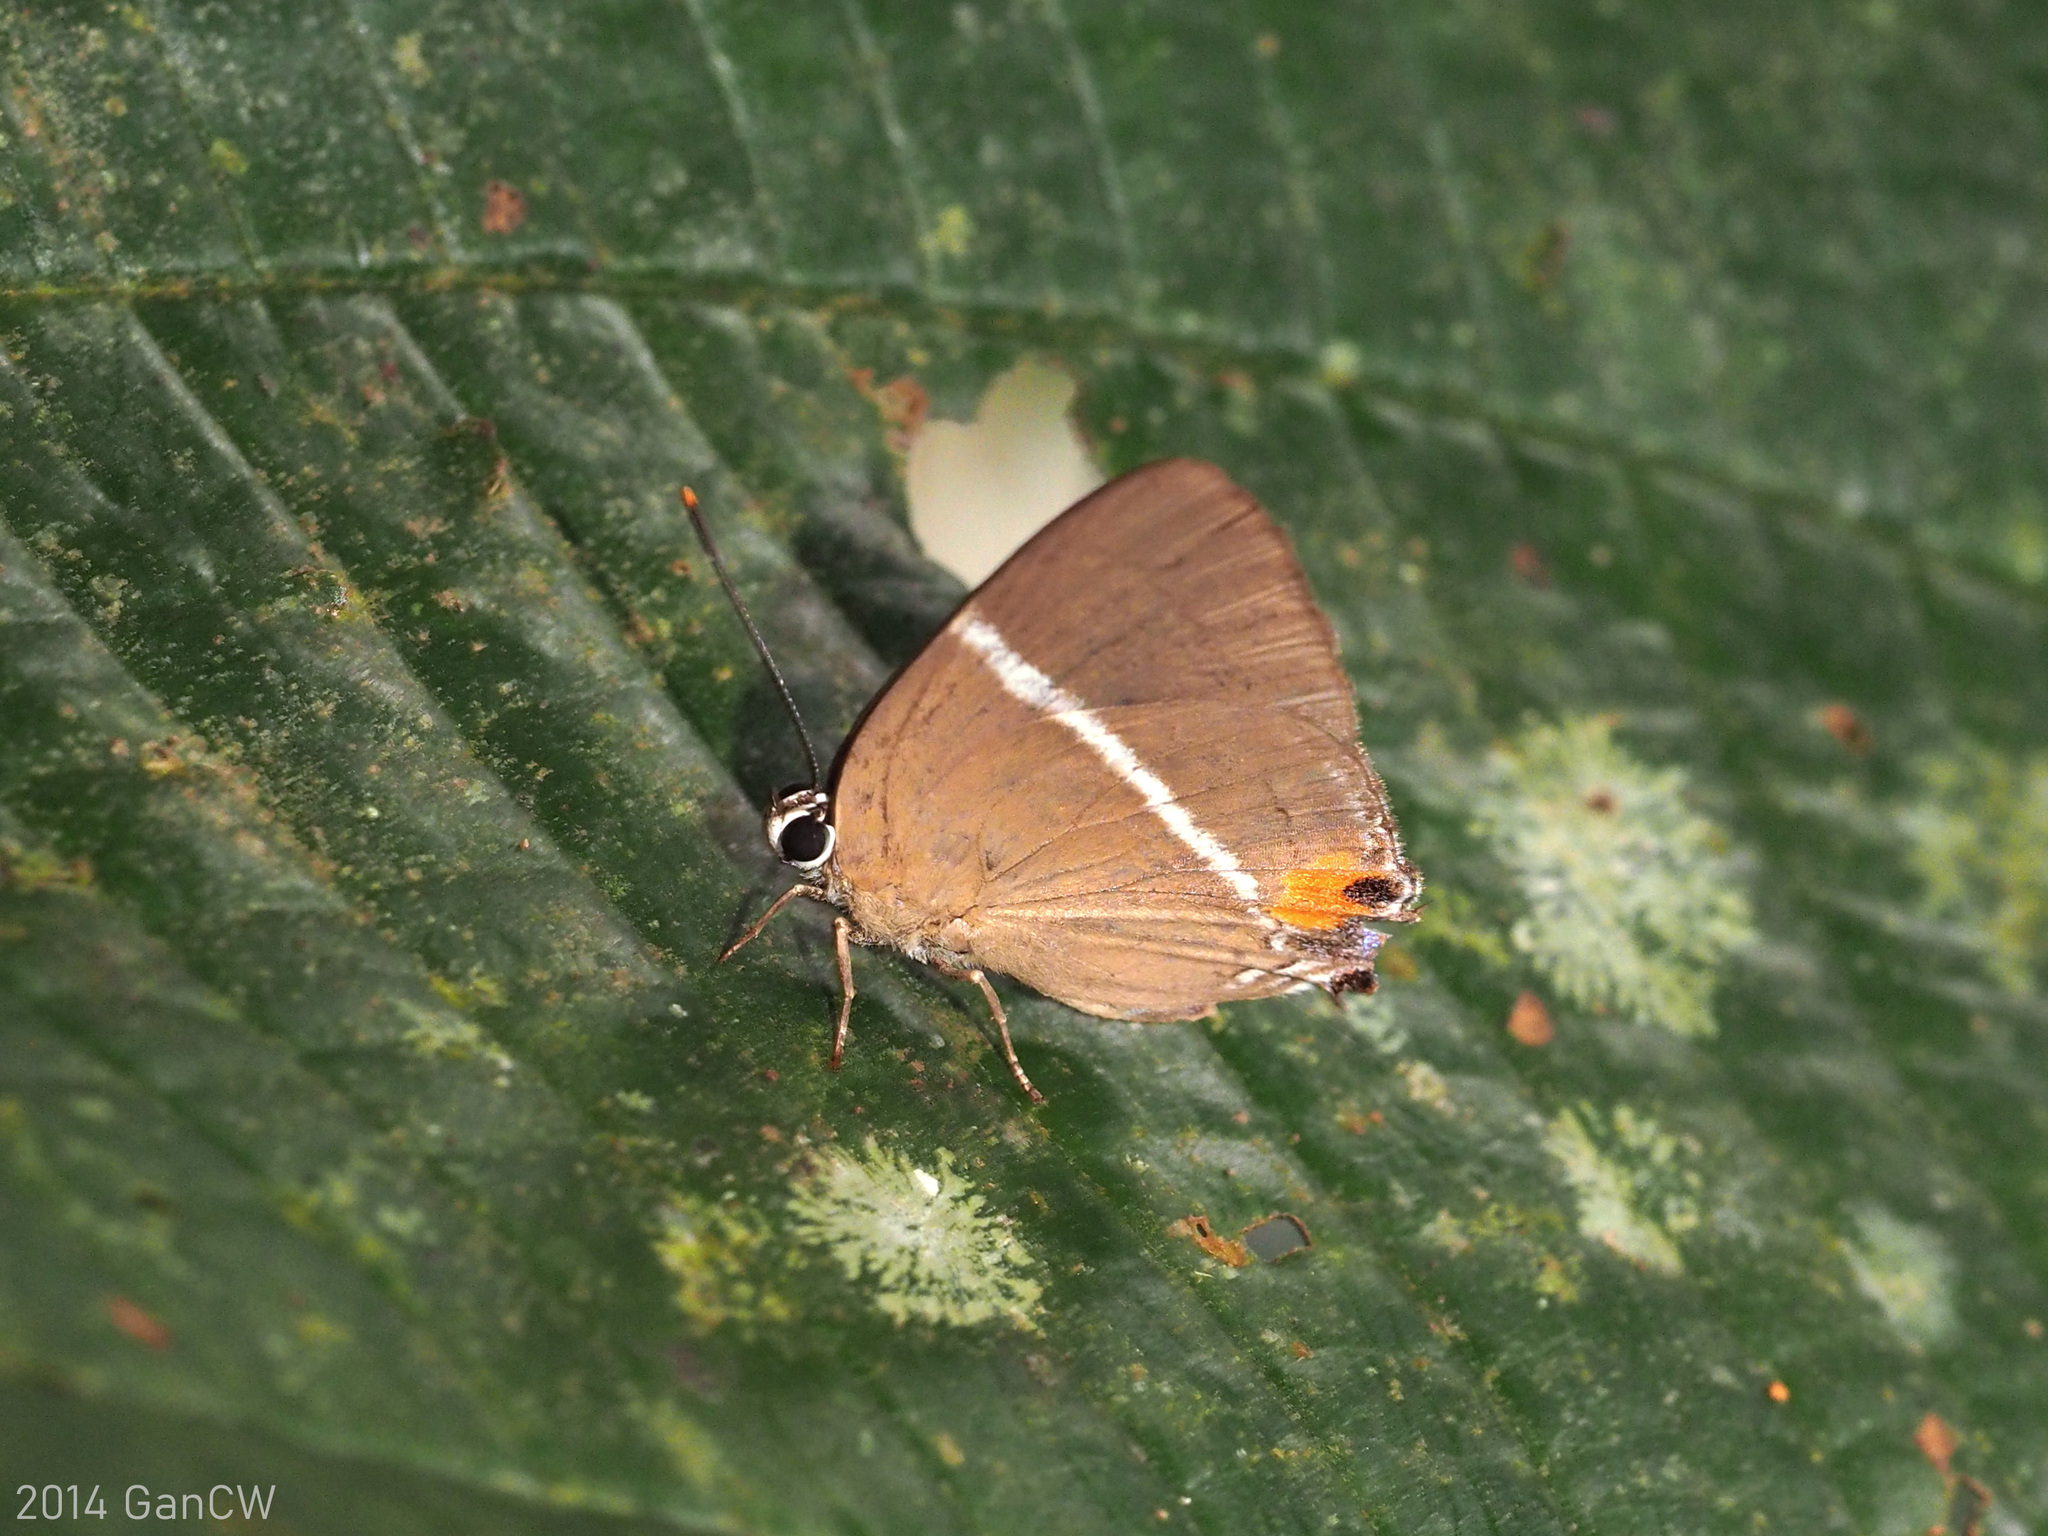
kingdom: Animalia
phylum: Arthropoda
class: Insecta
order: Lepidoptera
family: Lycaenidae
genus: Dacalana
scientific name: Dacalana sinhara
